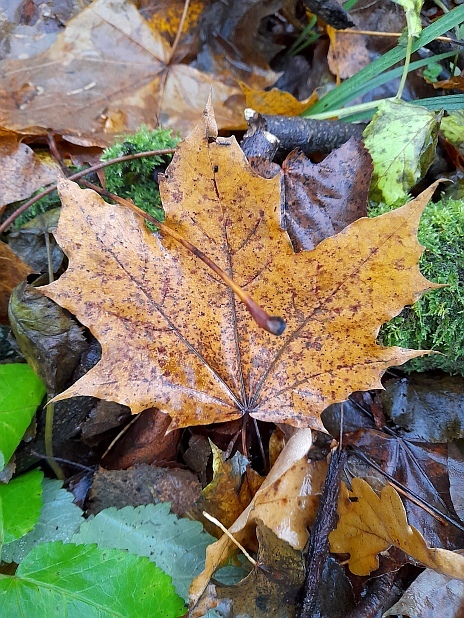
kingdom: Plantae
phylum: Tracheophyta
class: Magnoliopsida
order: Sapindales
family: Sapindaceae
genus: Acer
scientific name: Acer platanoides
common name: Norway maple
